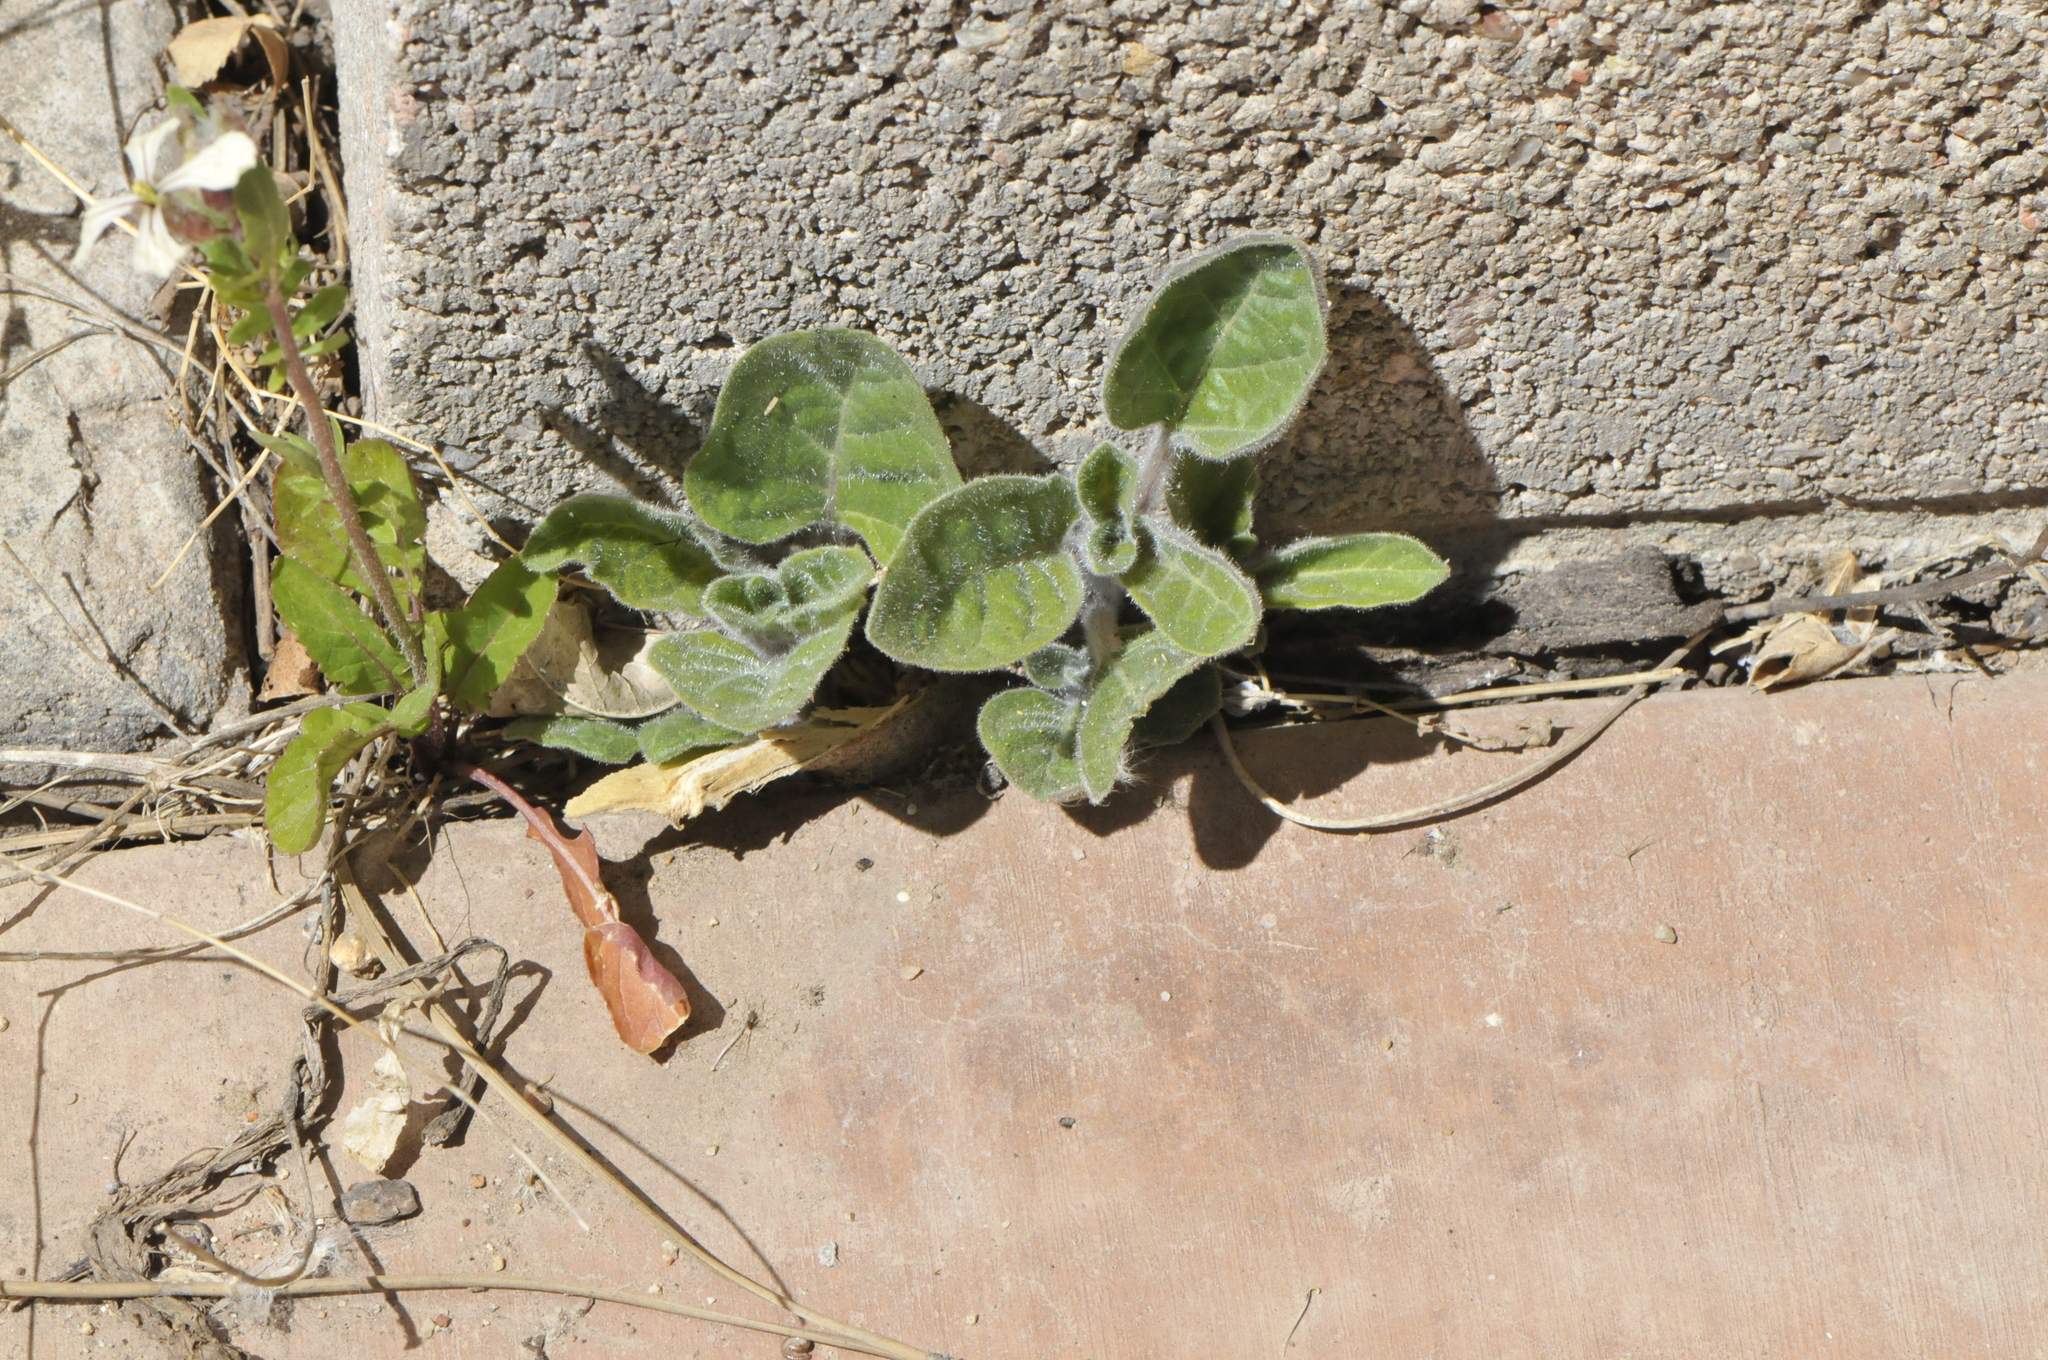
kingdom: Plantae
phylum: Tracheophyta
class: Magnoliopsida
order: Solanales
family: Solanaceae
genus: Datura
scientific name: Datura wrightii
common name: Sacred thorn-apple
